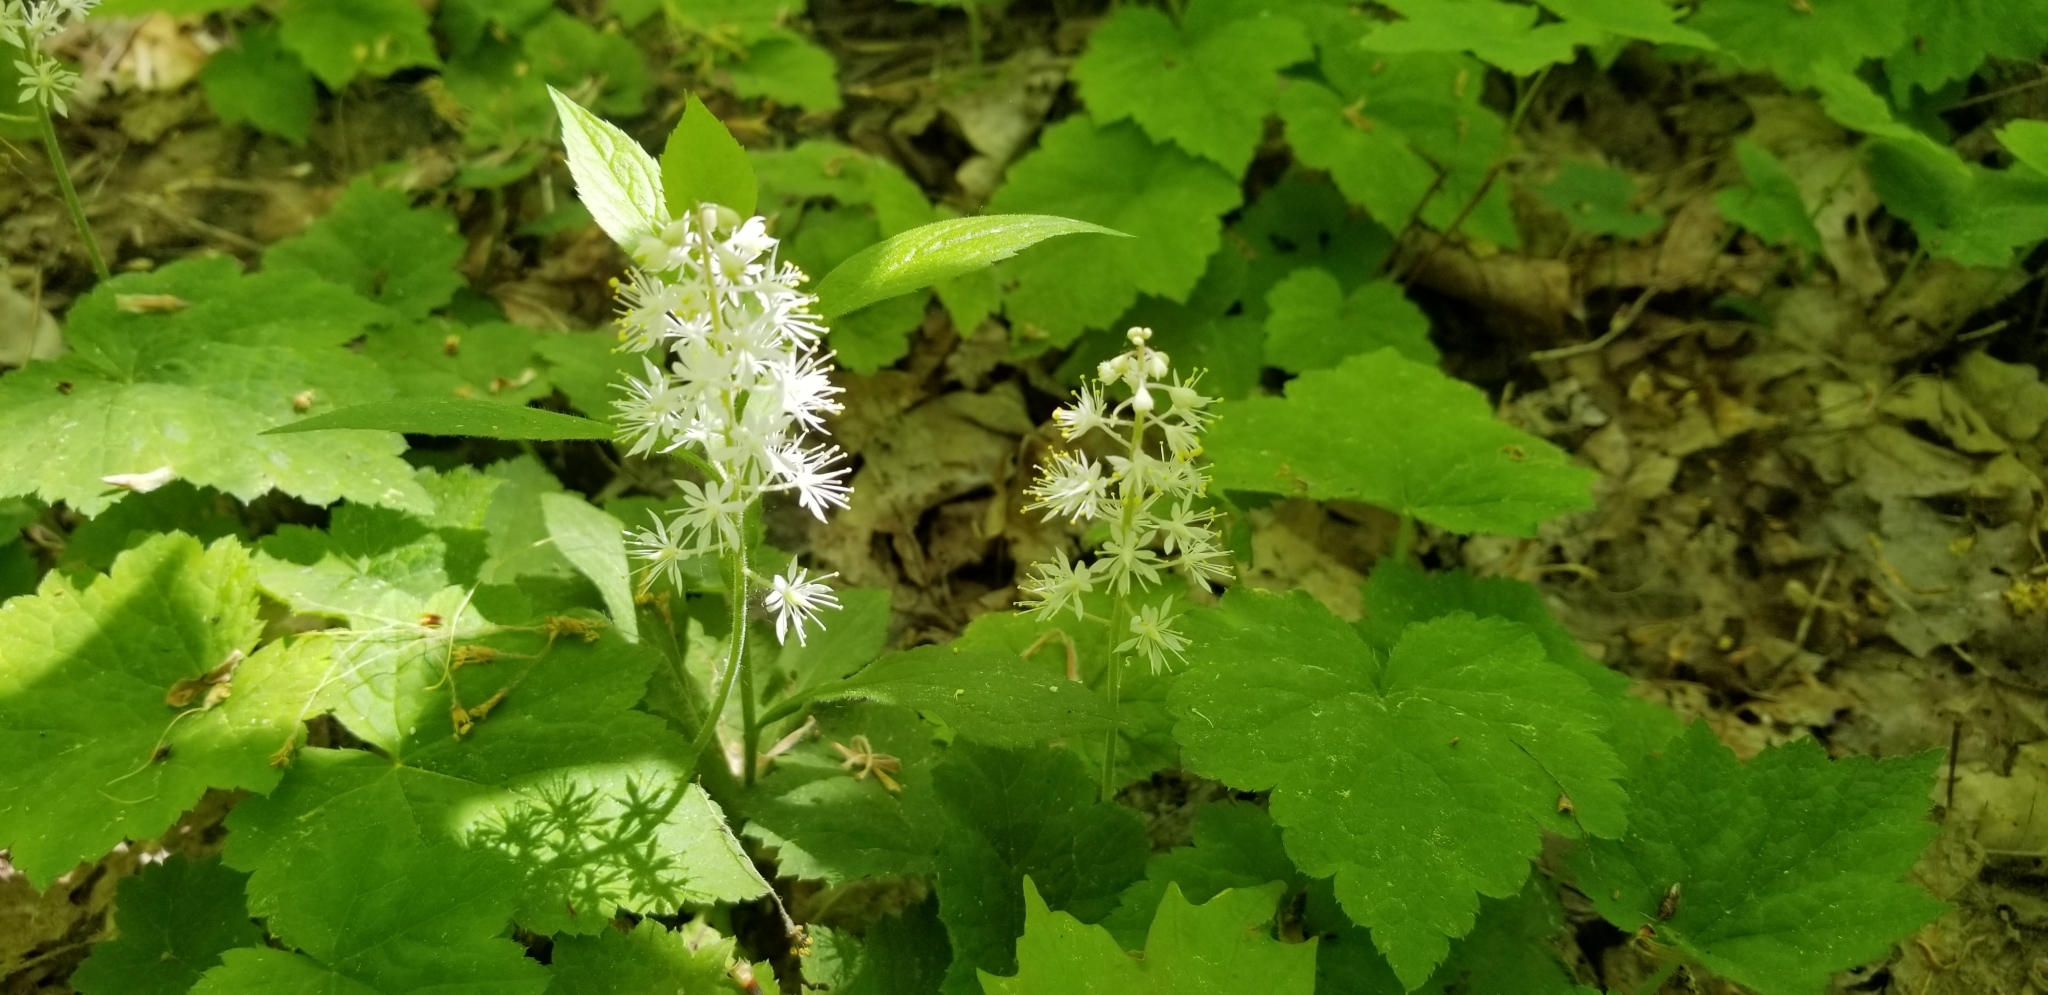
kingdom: Plantae
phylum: Tracheophyta
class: Magnoliopsida
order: Saxifragales
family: Saxifragaceae
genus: Tiarella
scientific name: Tiarella stolonifera
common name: Stoloniferous foamflower
